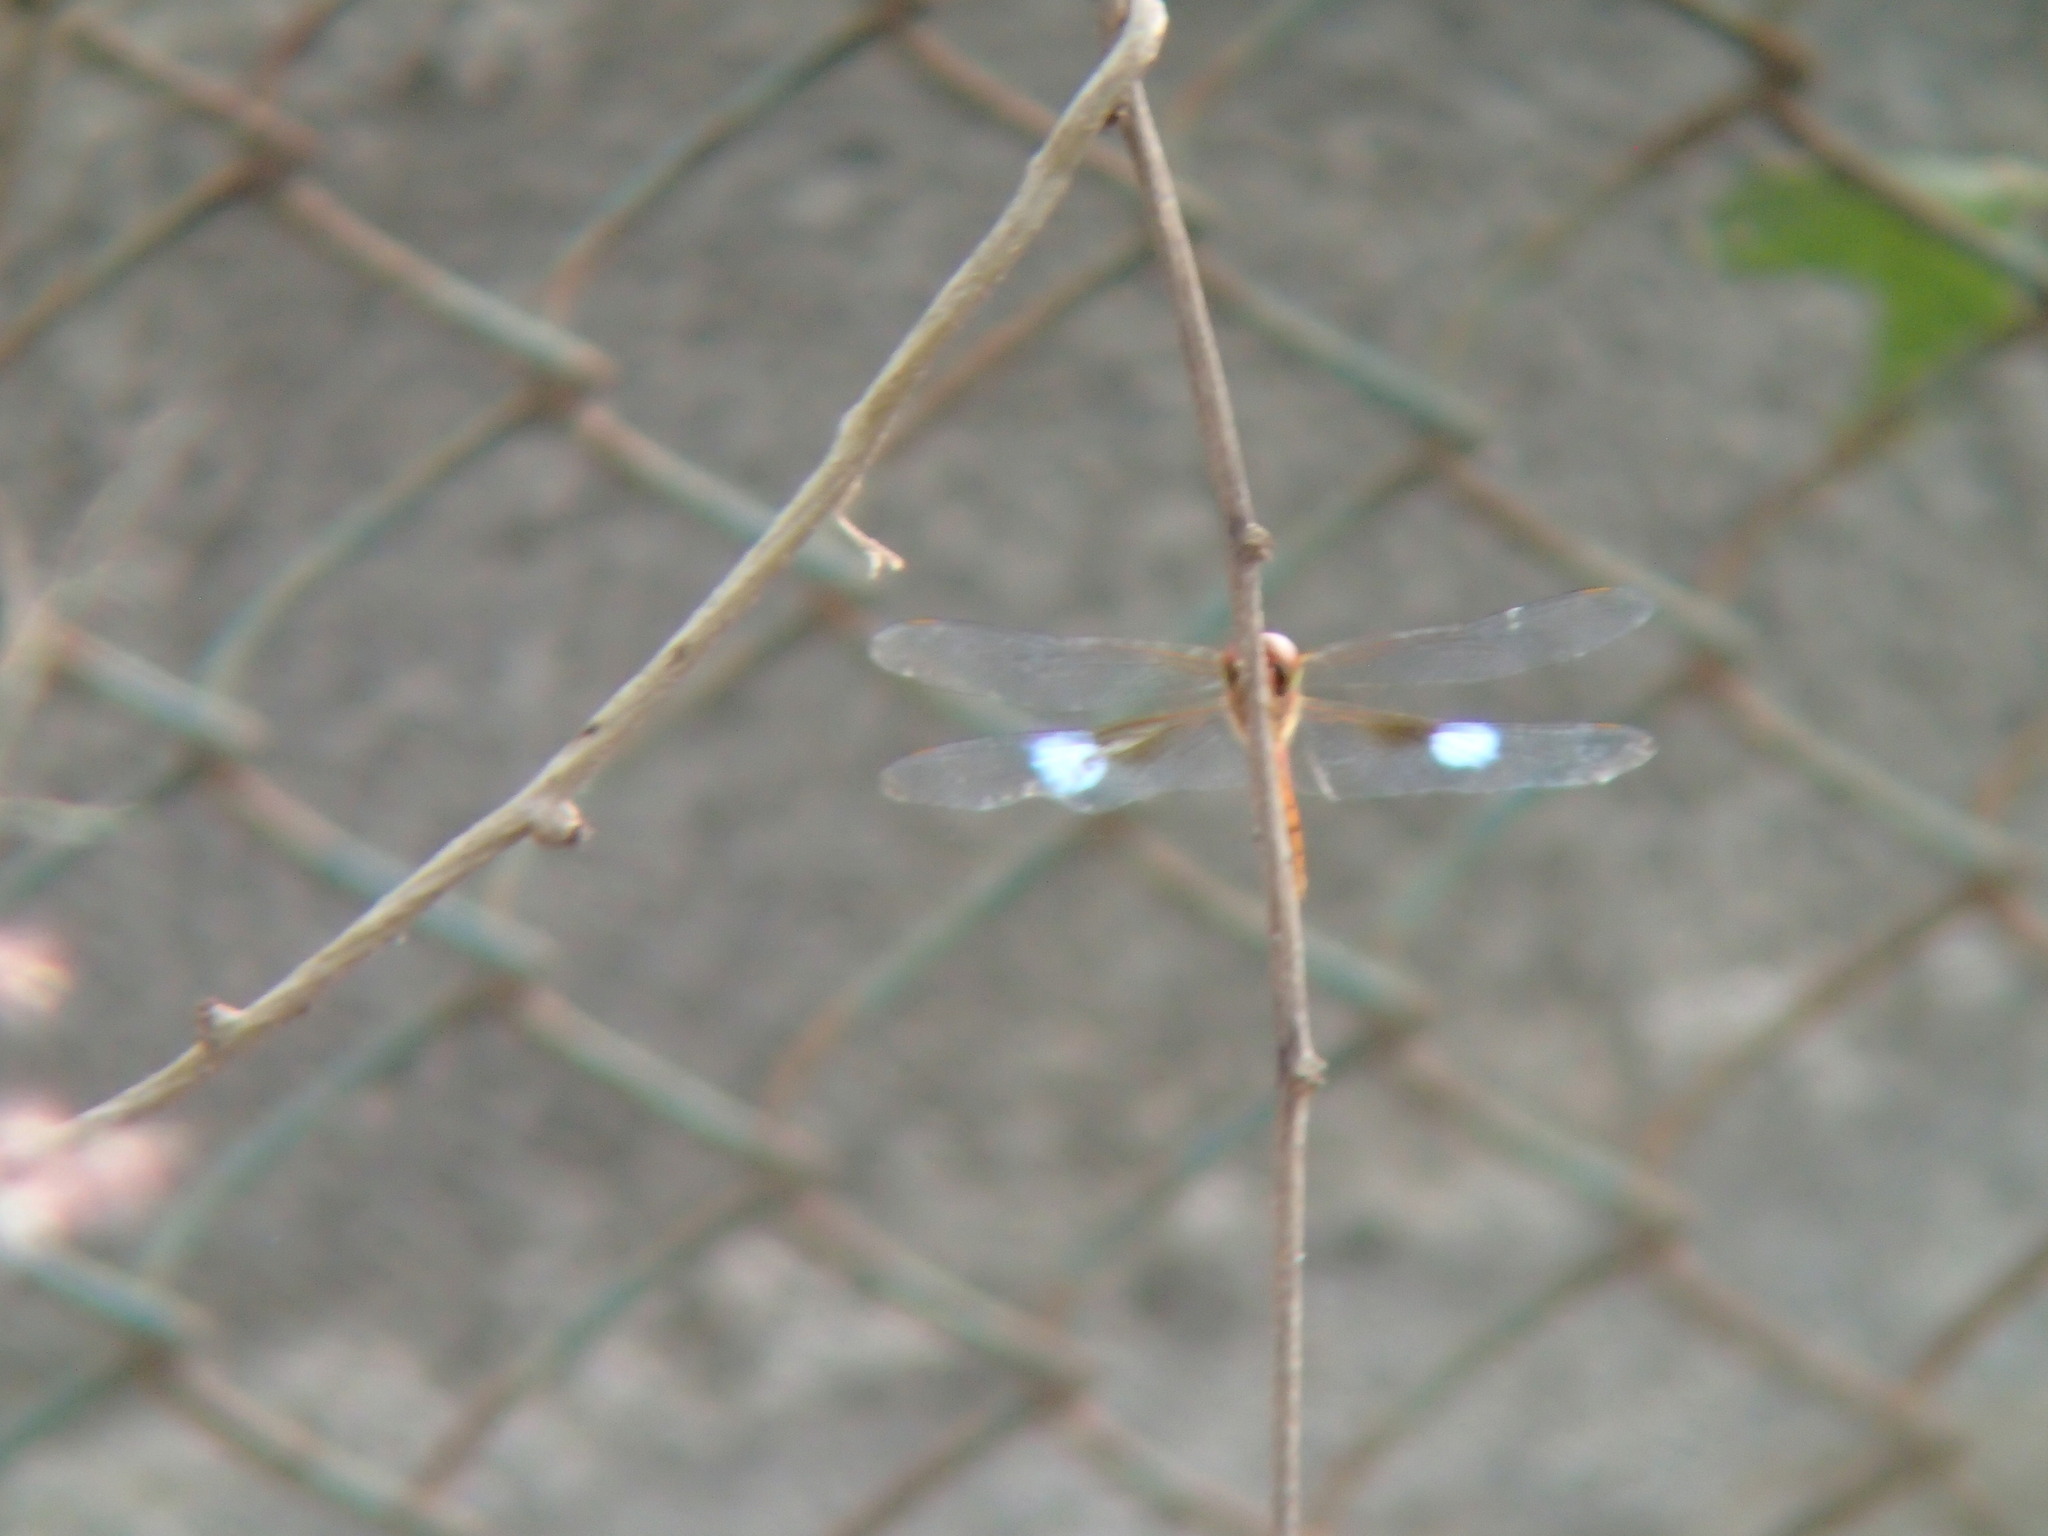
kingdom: Animalia
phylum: Arthropoda
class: Insecta
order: Odonata
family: Libellulidae
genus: Tholymis
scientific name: Tholymis tillarga
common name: Coral-tailed cloud wing
